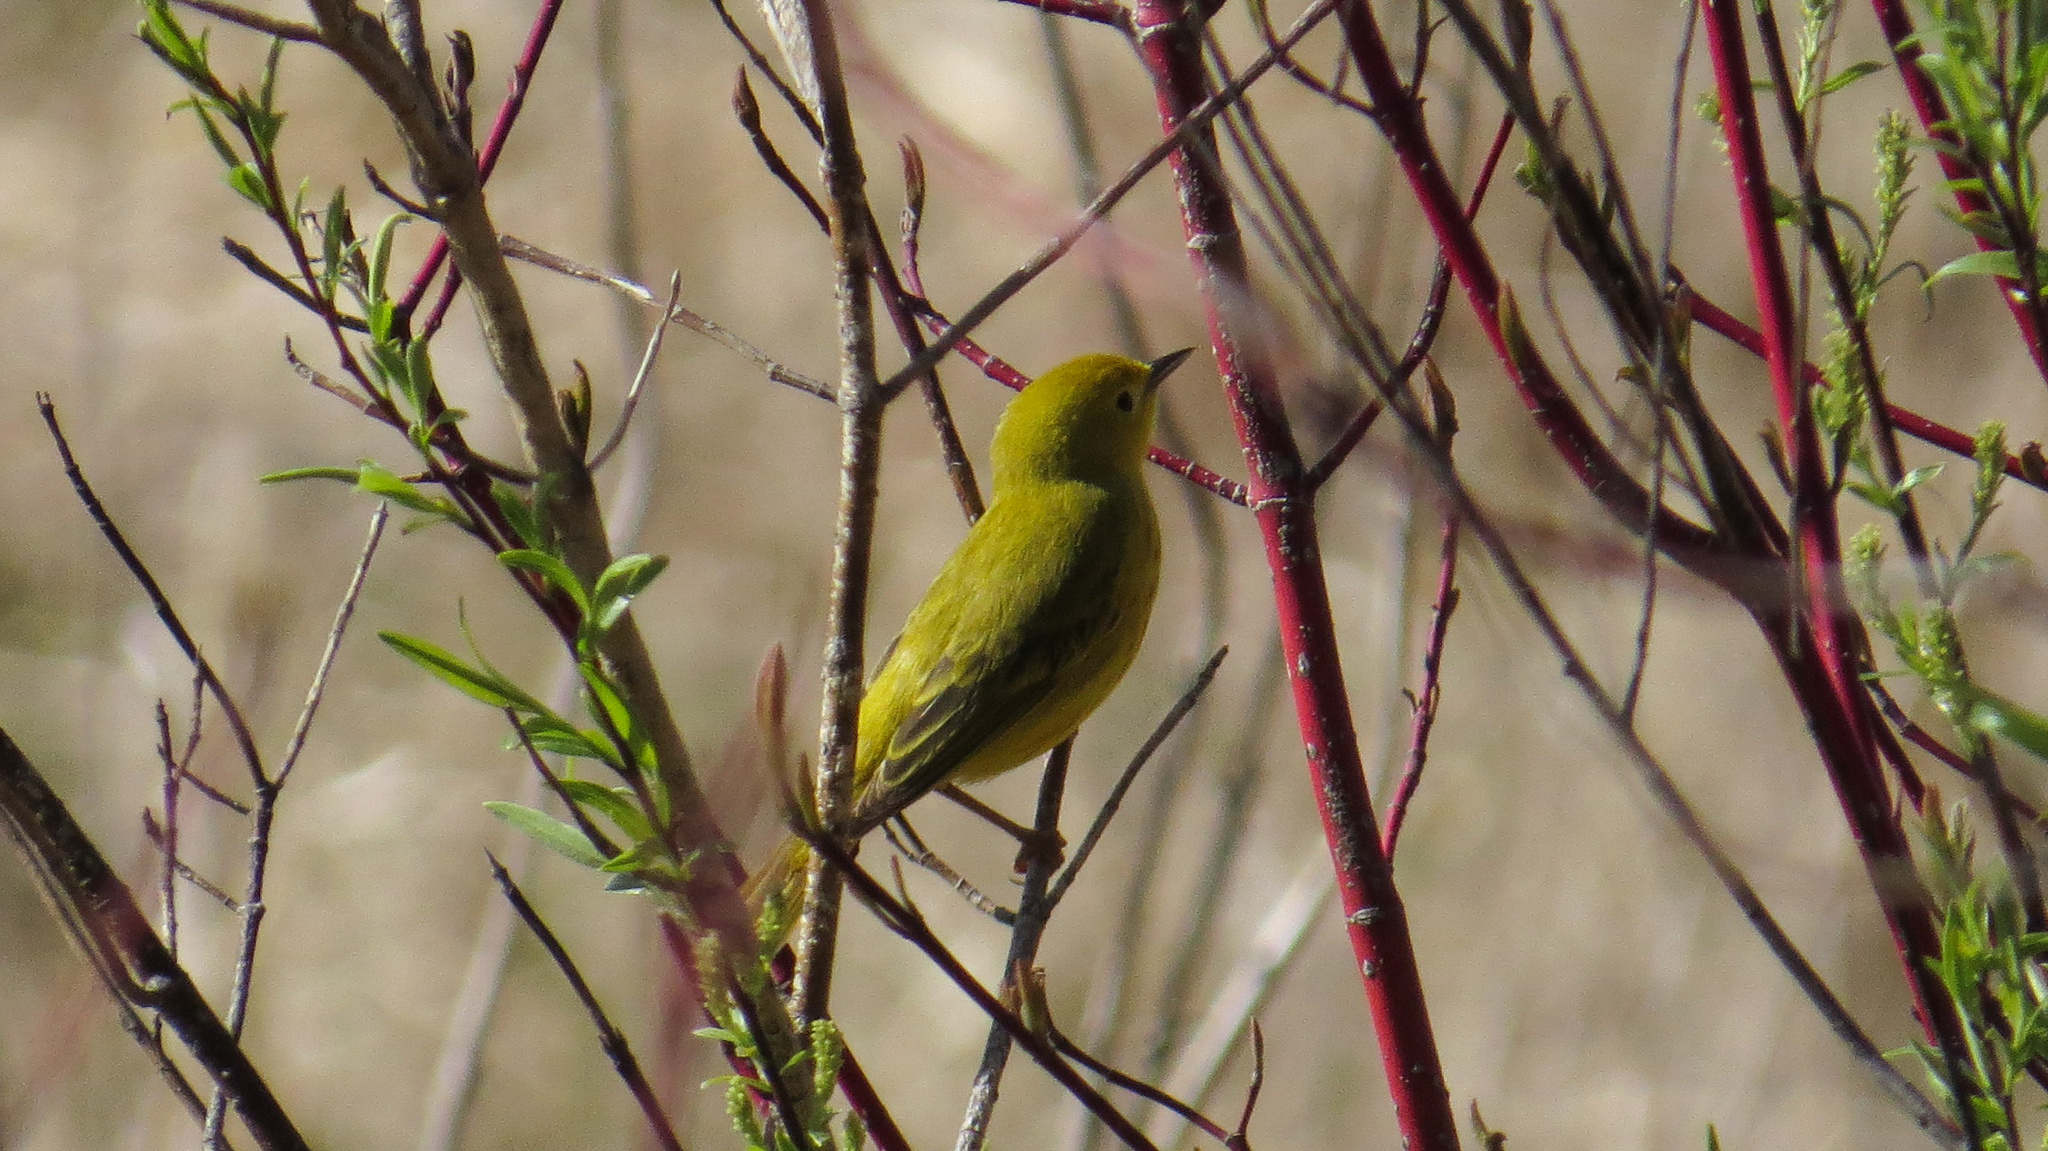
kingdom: Animalia
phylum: Chordata
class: Aves
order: Passeriformes
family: Parulidae
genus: Setophaga
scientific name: Setophaga petechia
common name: Yellow warbler
